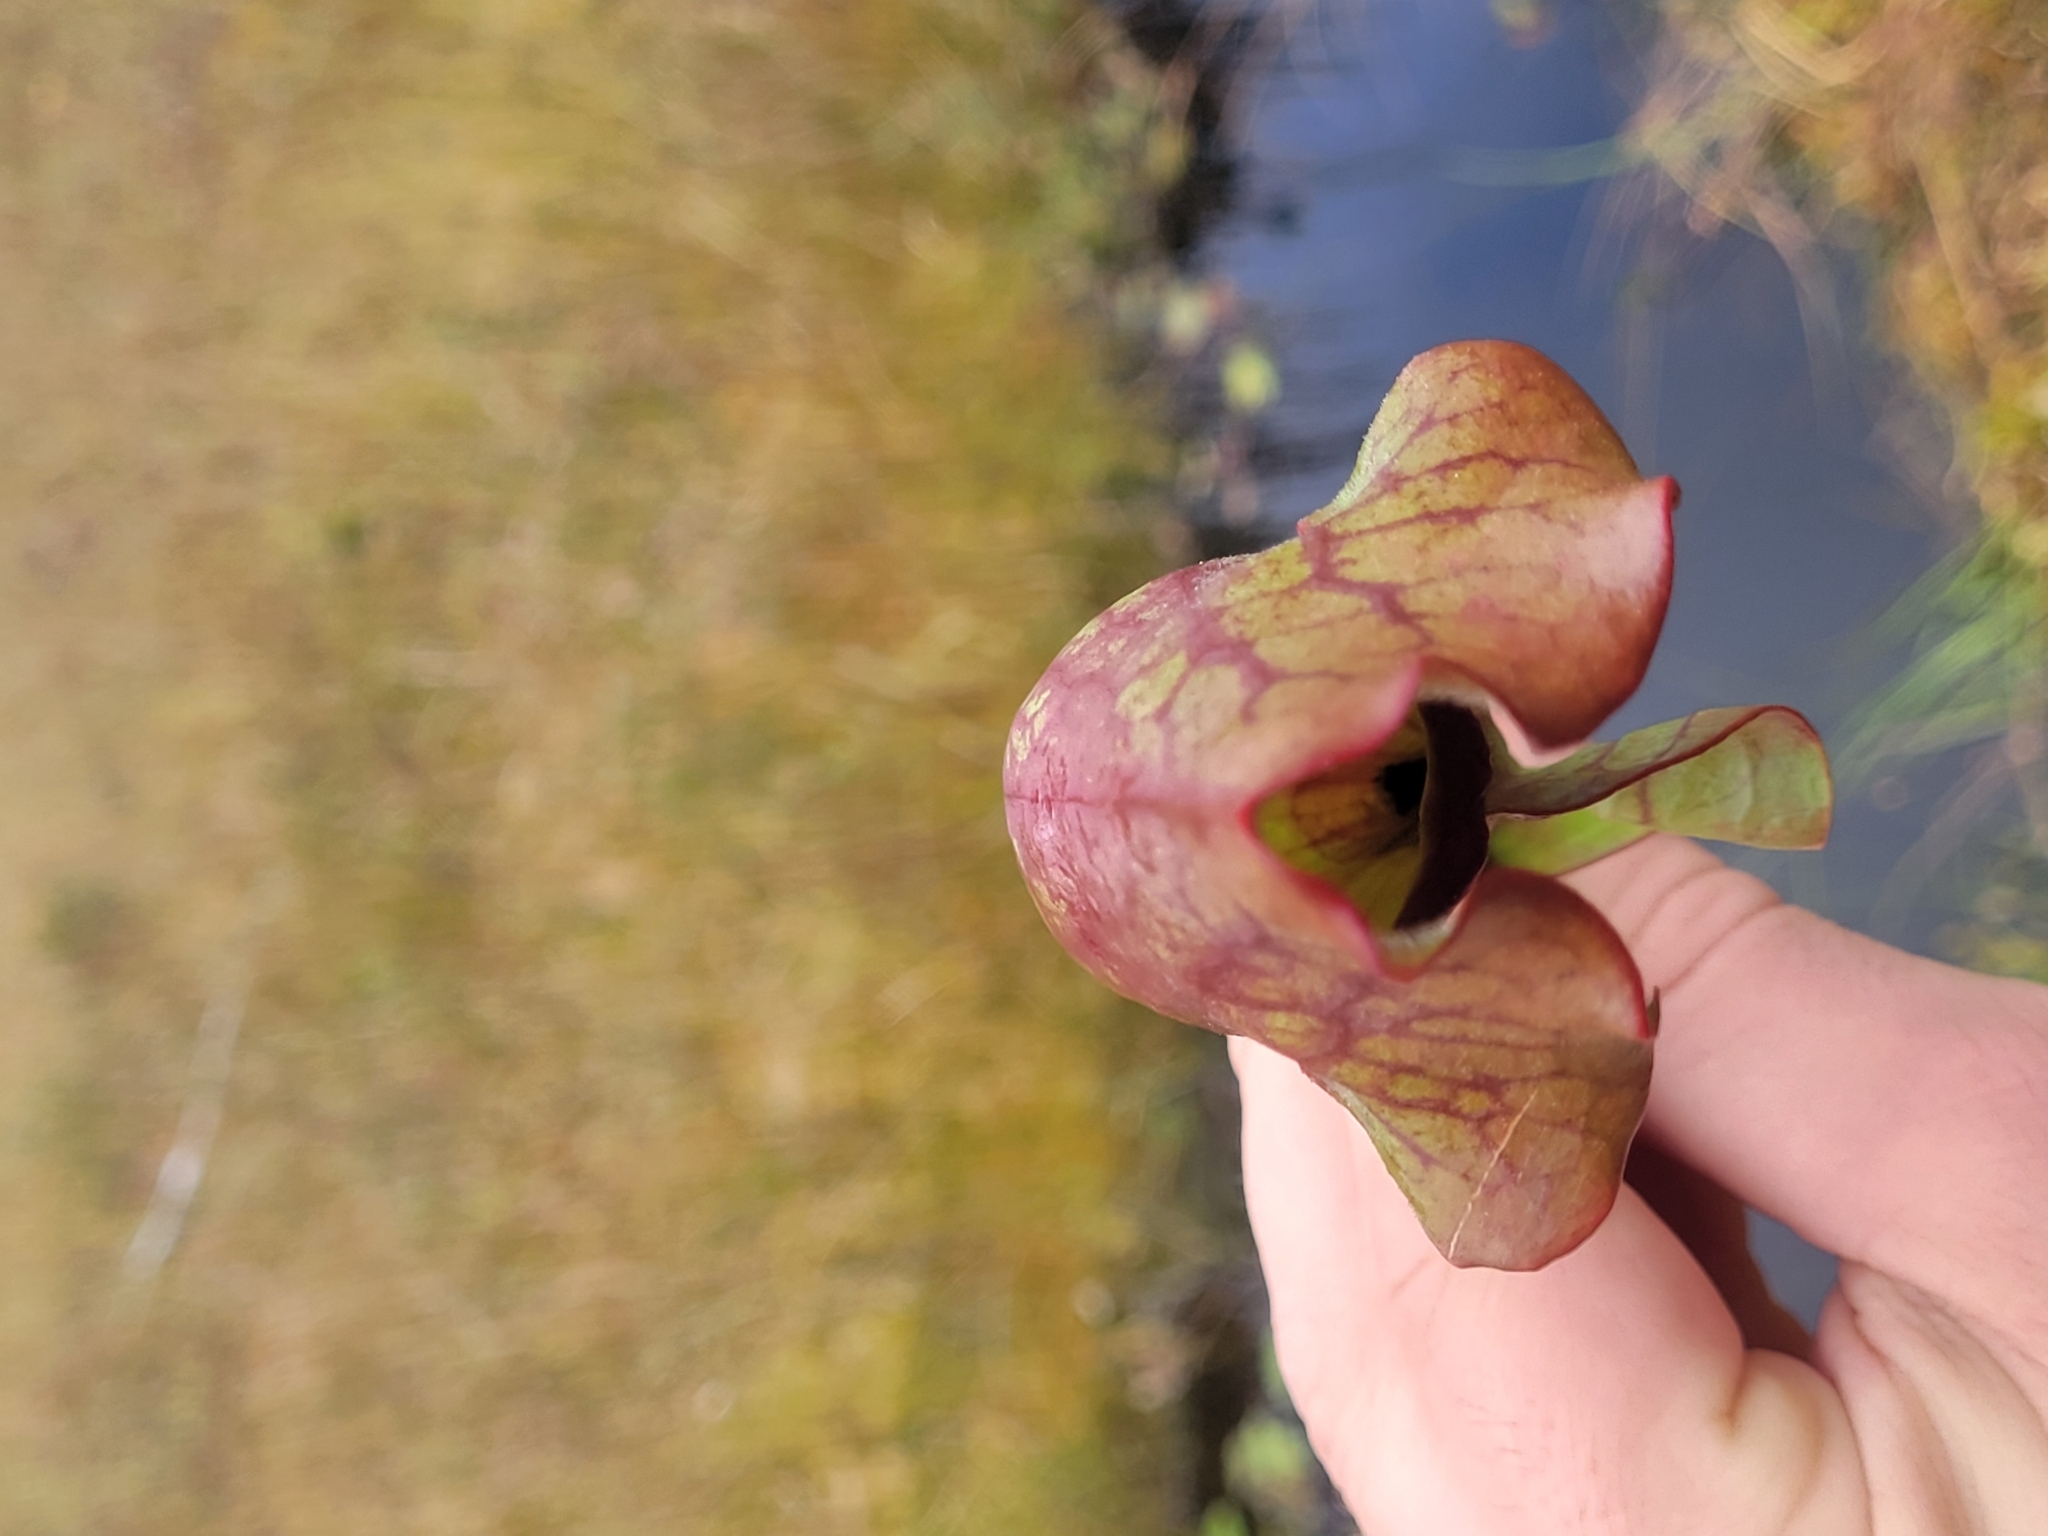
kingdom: Plantae
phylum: Tracheophyta
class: Magnoliopsida
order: Ericales
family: Sarraceniaceae
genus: Sarracenia
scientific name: Sarracenia purpurea
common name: Pitcherplant
